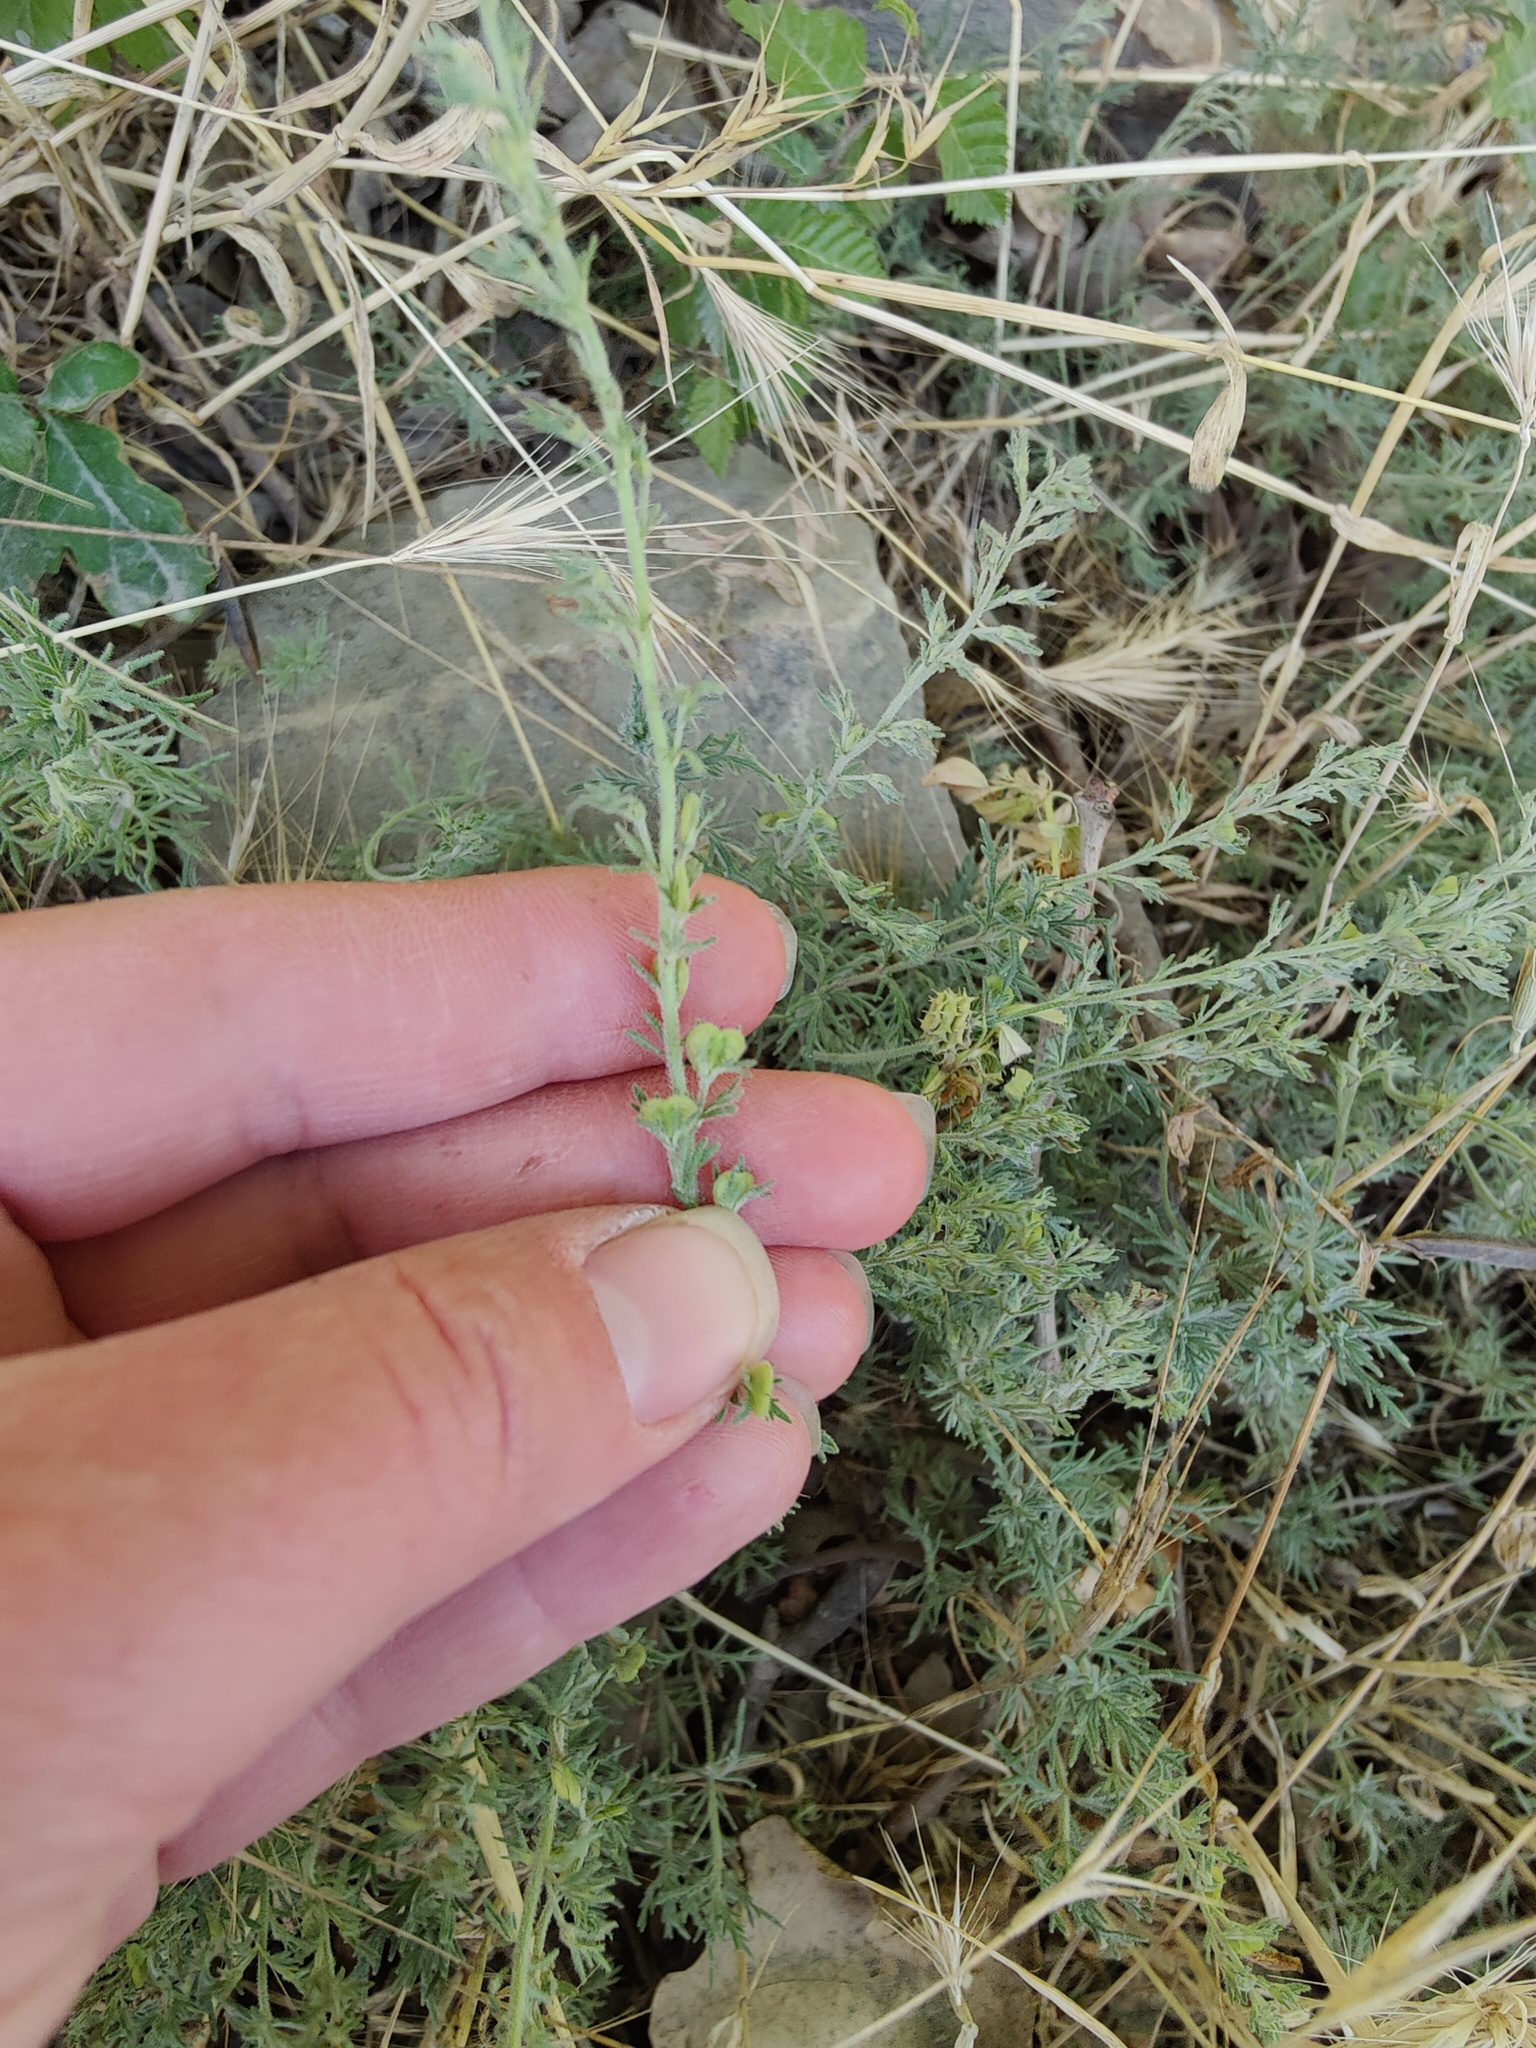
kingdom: Plantae
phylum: Tracheophyta
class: Magnoliopsida
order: Lamiales
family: Plantaginaceae
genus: Veronica
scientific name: Veronica capsellicarpa
